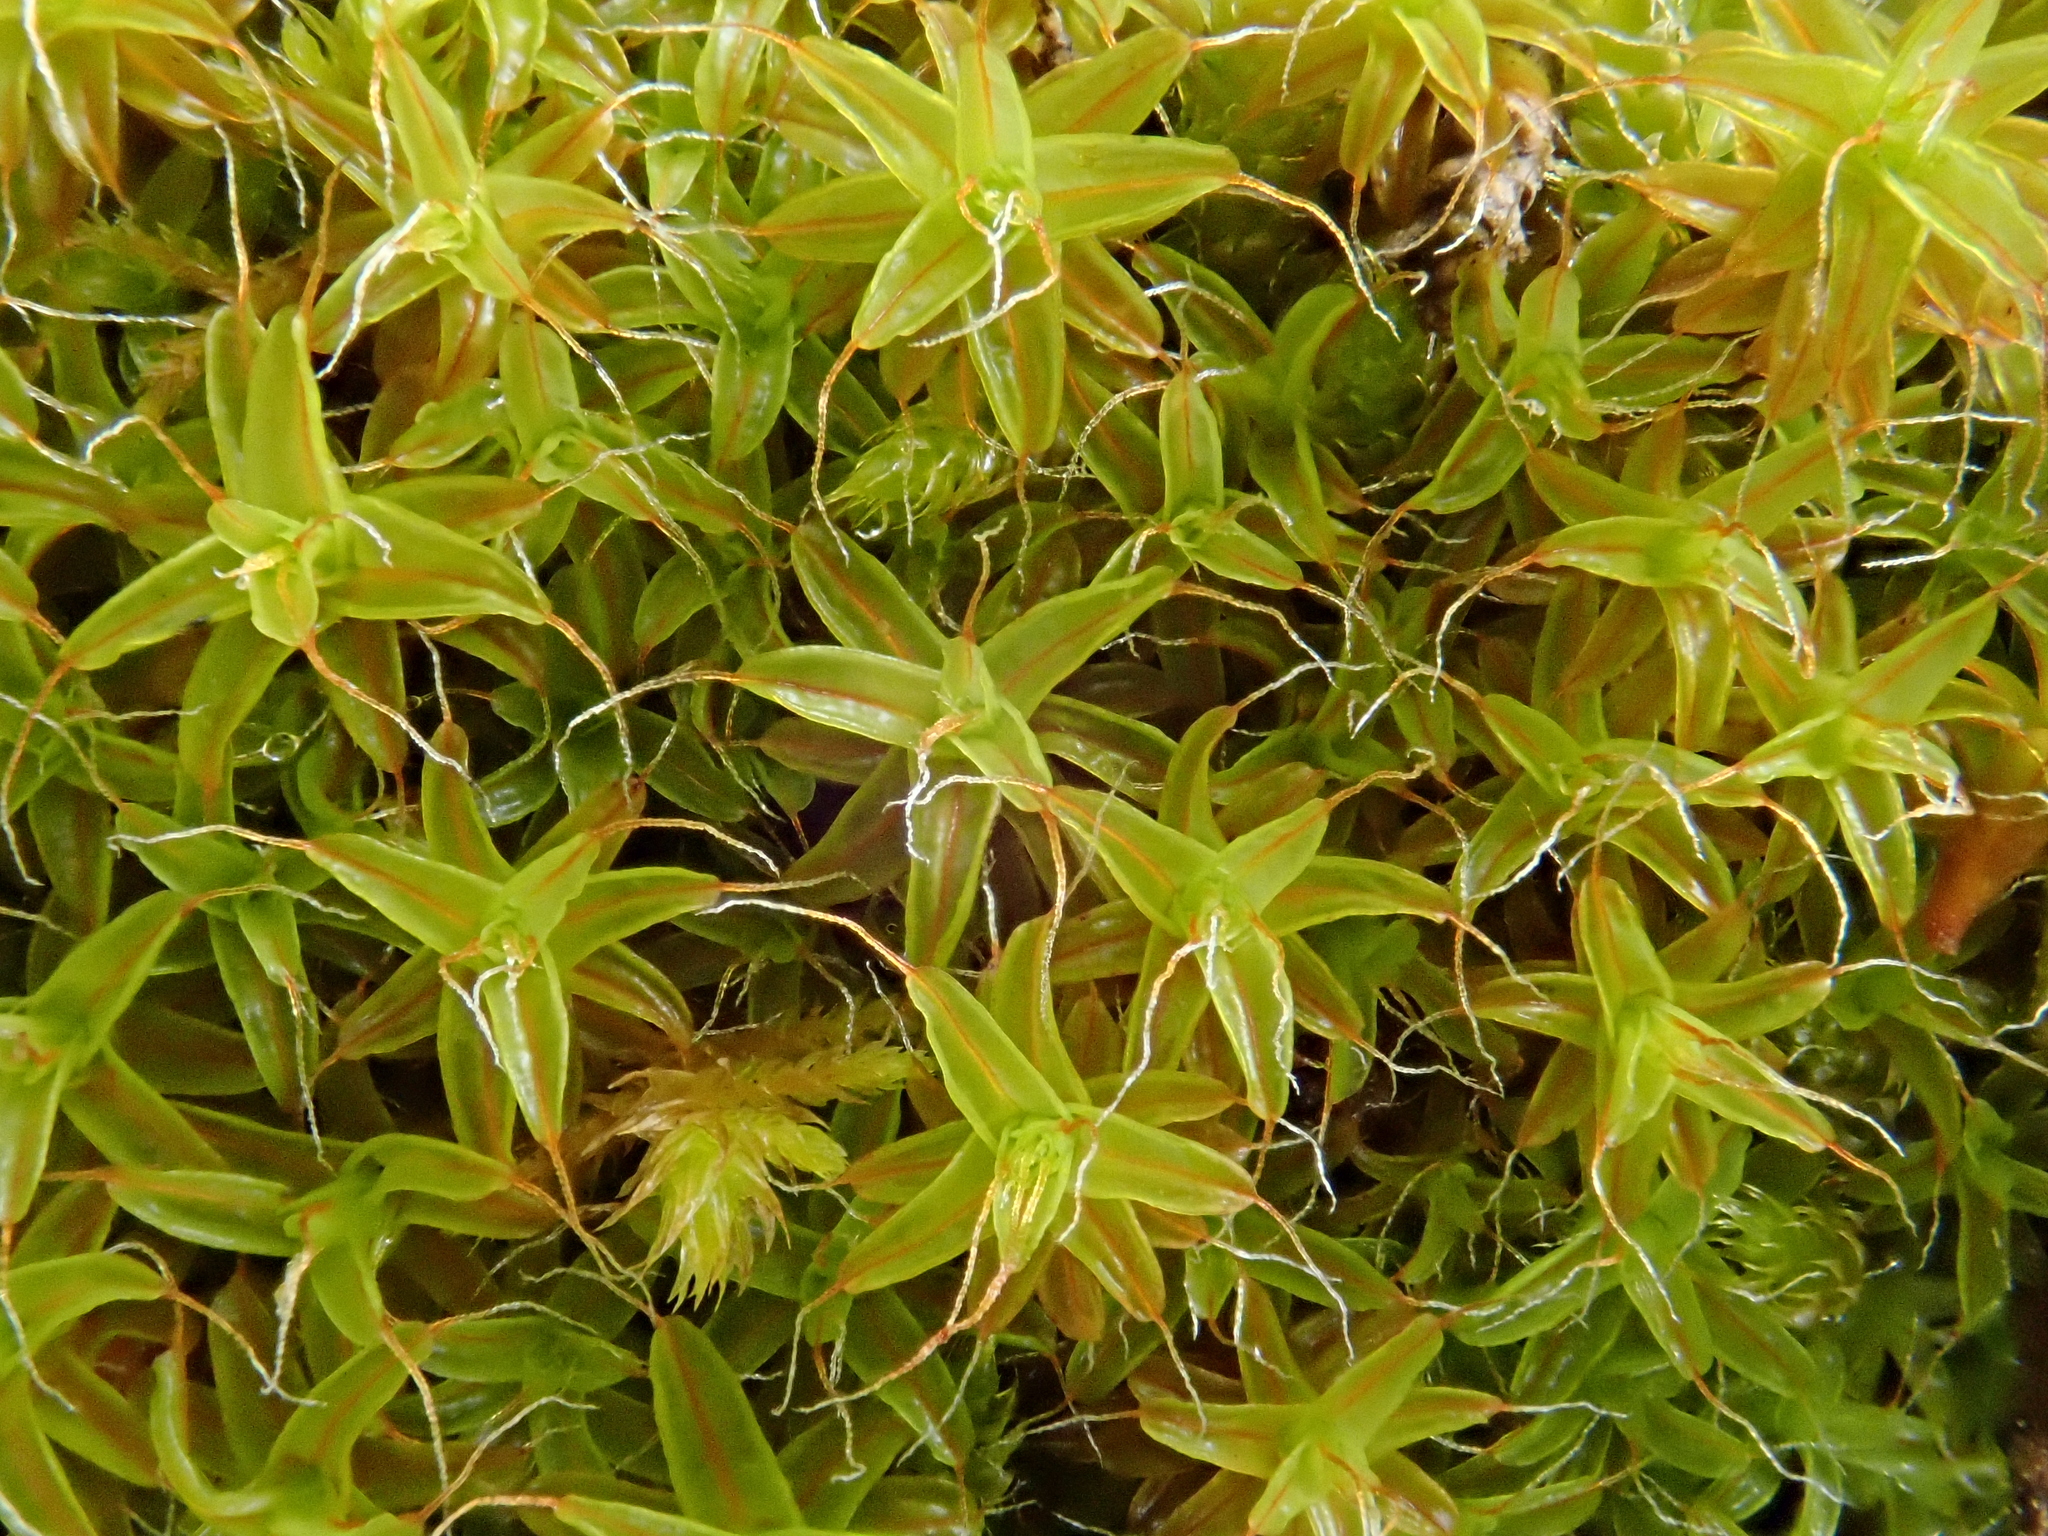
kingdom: Plantae
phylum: Bryophyta
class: Bryopsida
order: Pottiales
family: Pottiaceae
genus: Syntrichia
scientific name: Syntrichia ruralis
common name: Sidewalk screw moss
